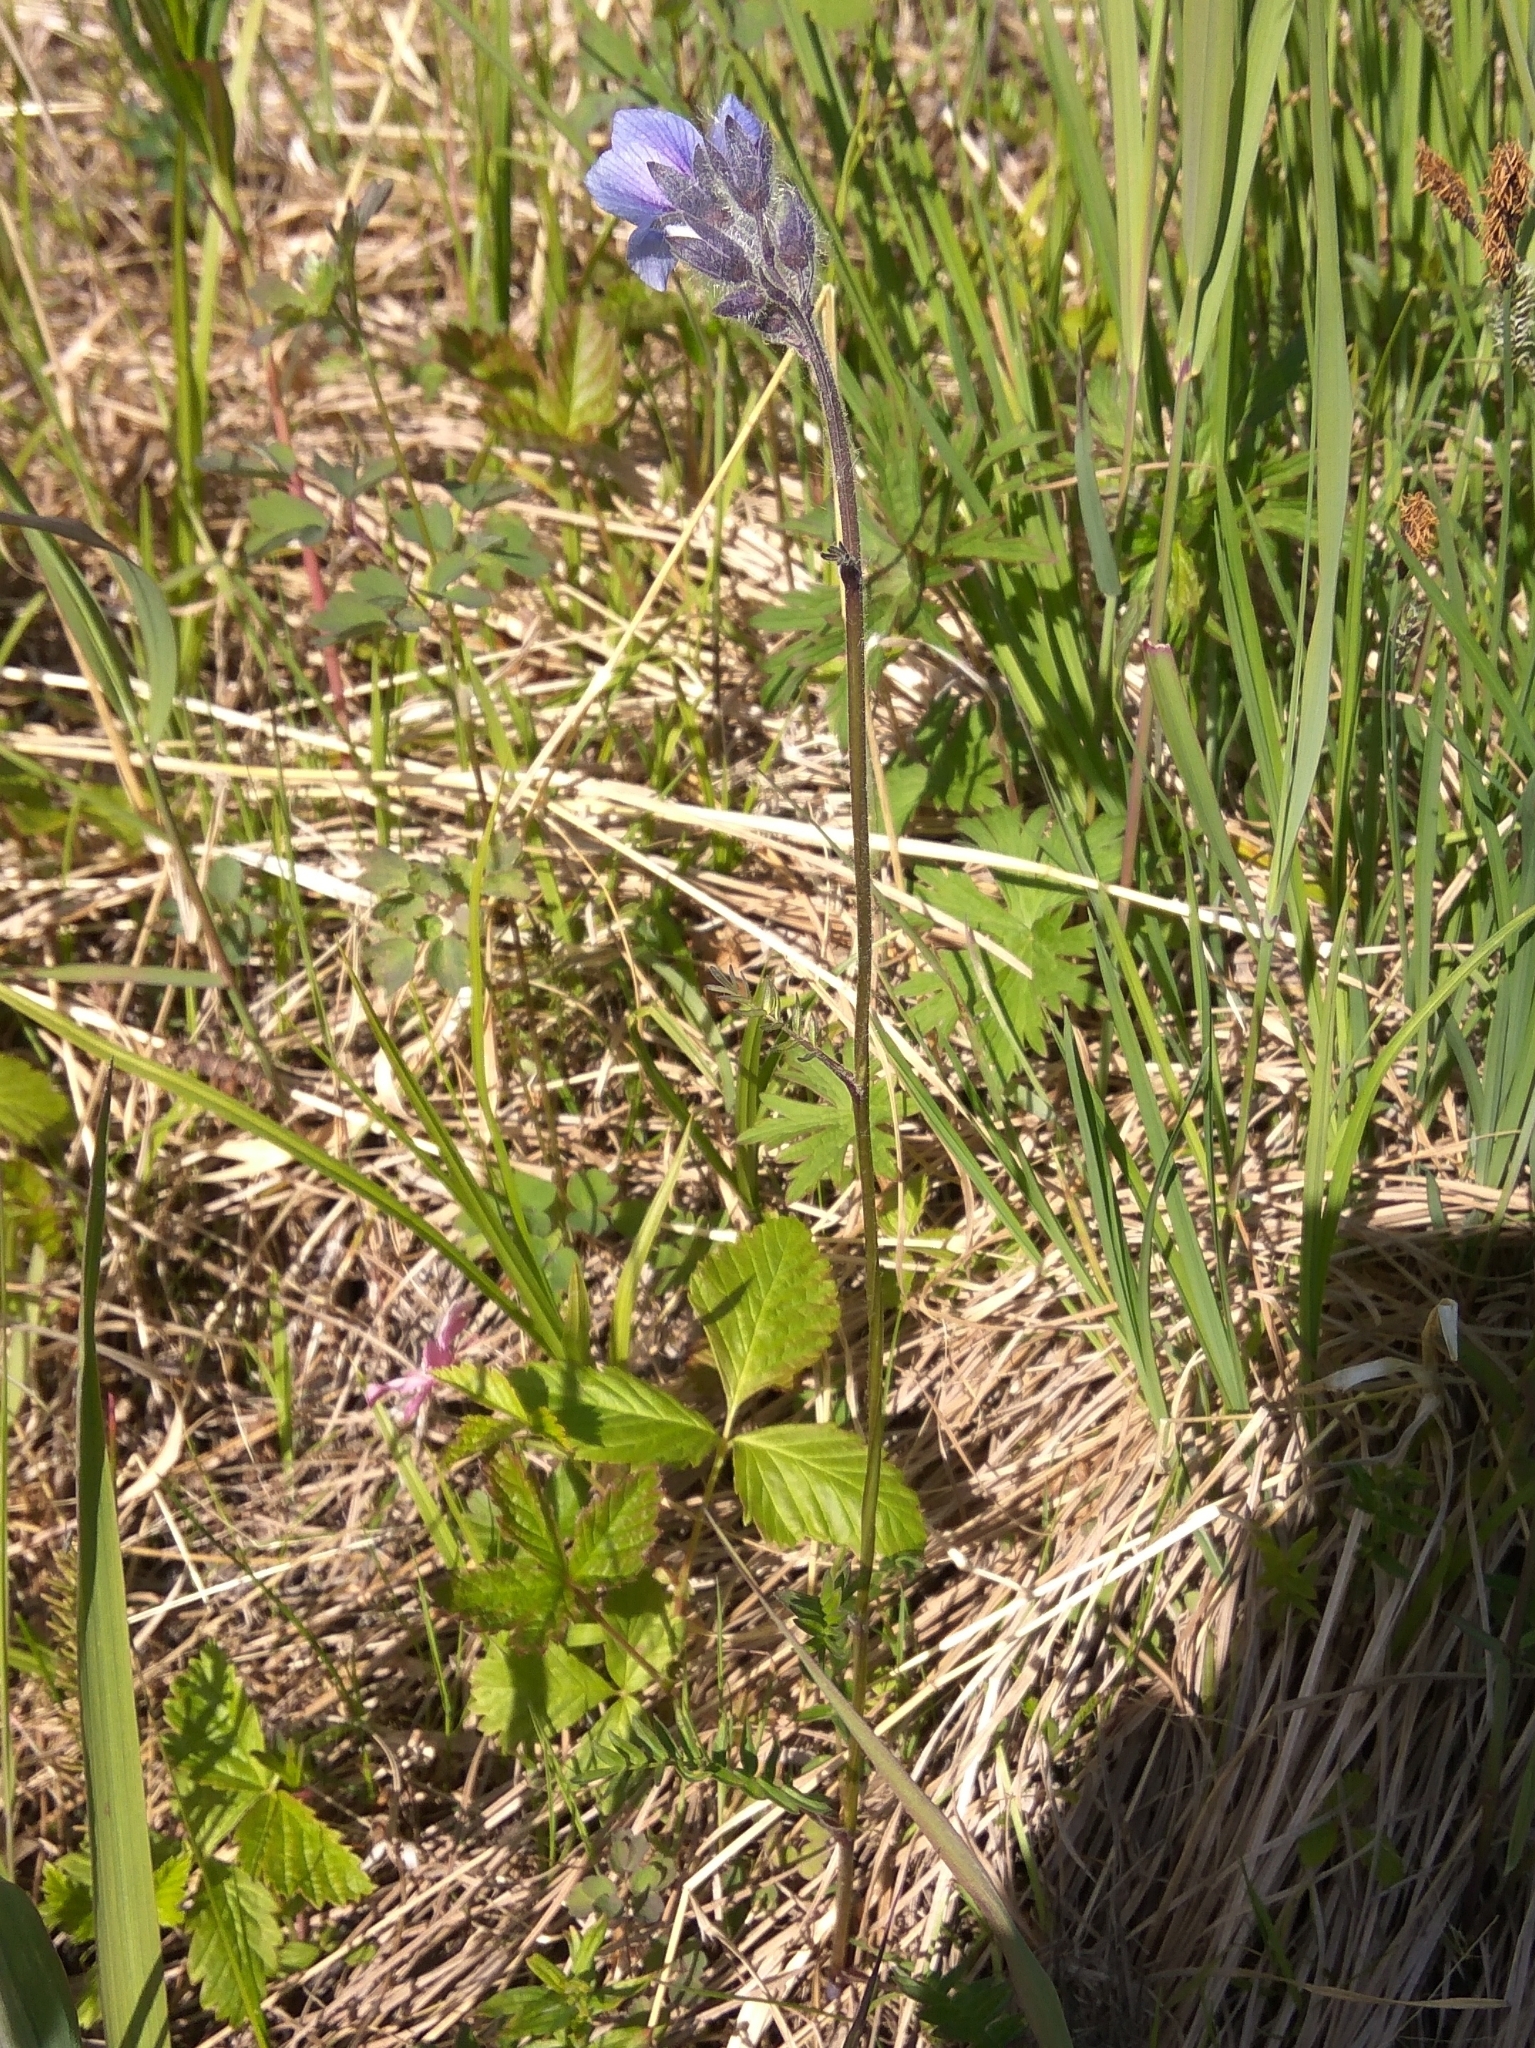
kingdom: Plantae
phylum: Tracheophyta
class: Magnoliopsida
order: Ericales
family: Polemoniaceae
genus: Polemonium
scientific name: Polemonium acutiflorum
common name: Tall jacob's-ladder
